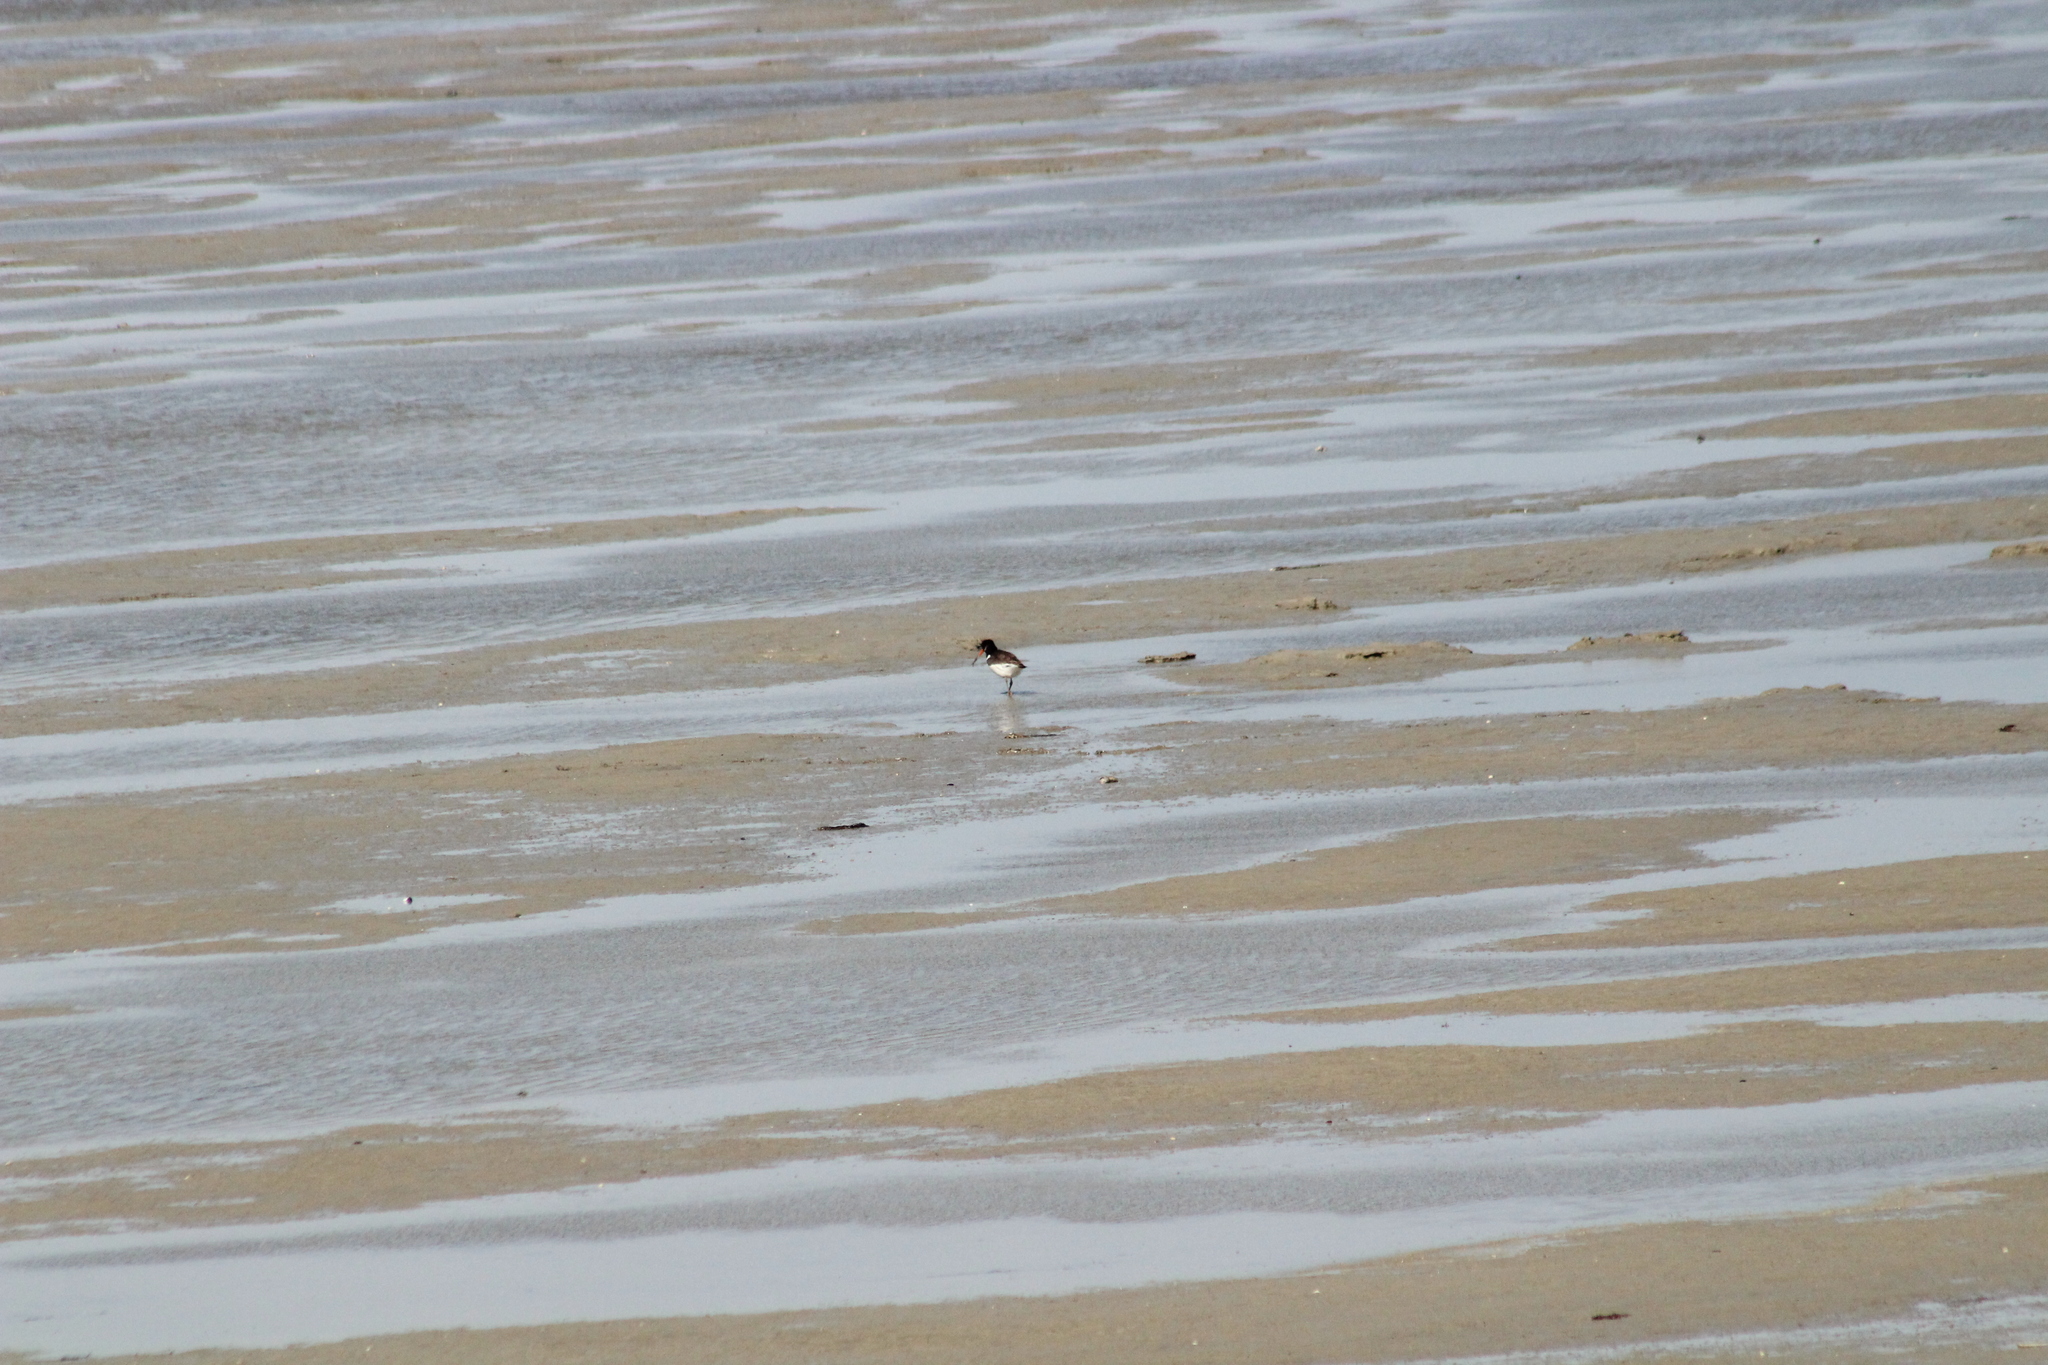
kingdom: Animalia
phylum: Chordata
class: Aves
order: Charadriiformes
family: Haematopodidae
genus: Haematopus
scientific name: Haematopus ostralegus
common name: Eurasian oystercatcher
